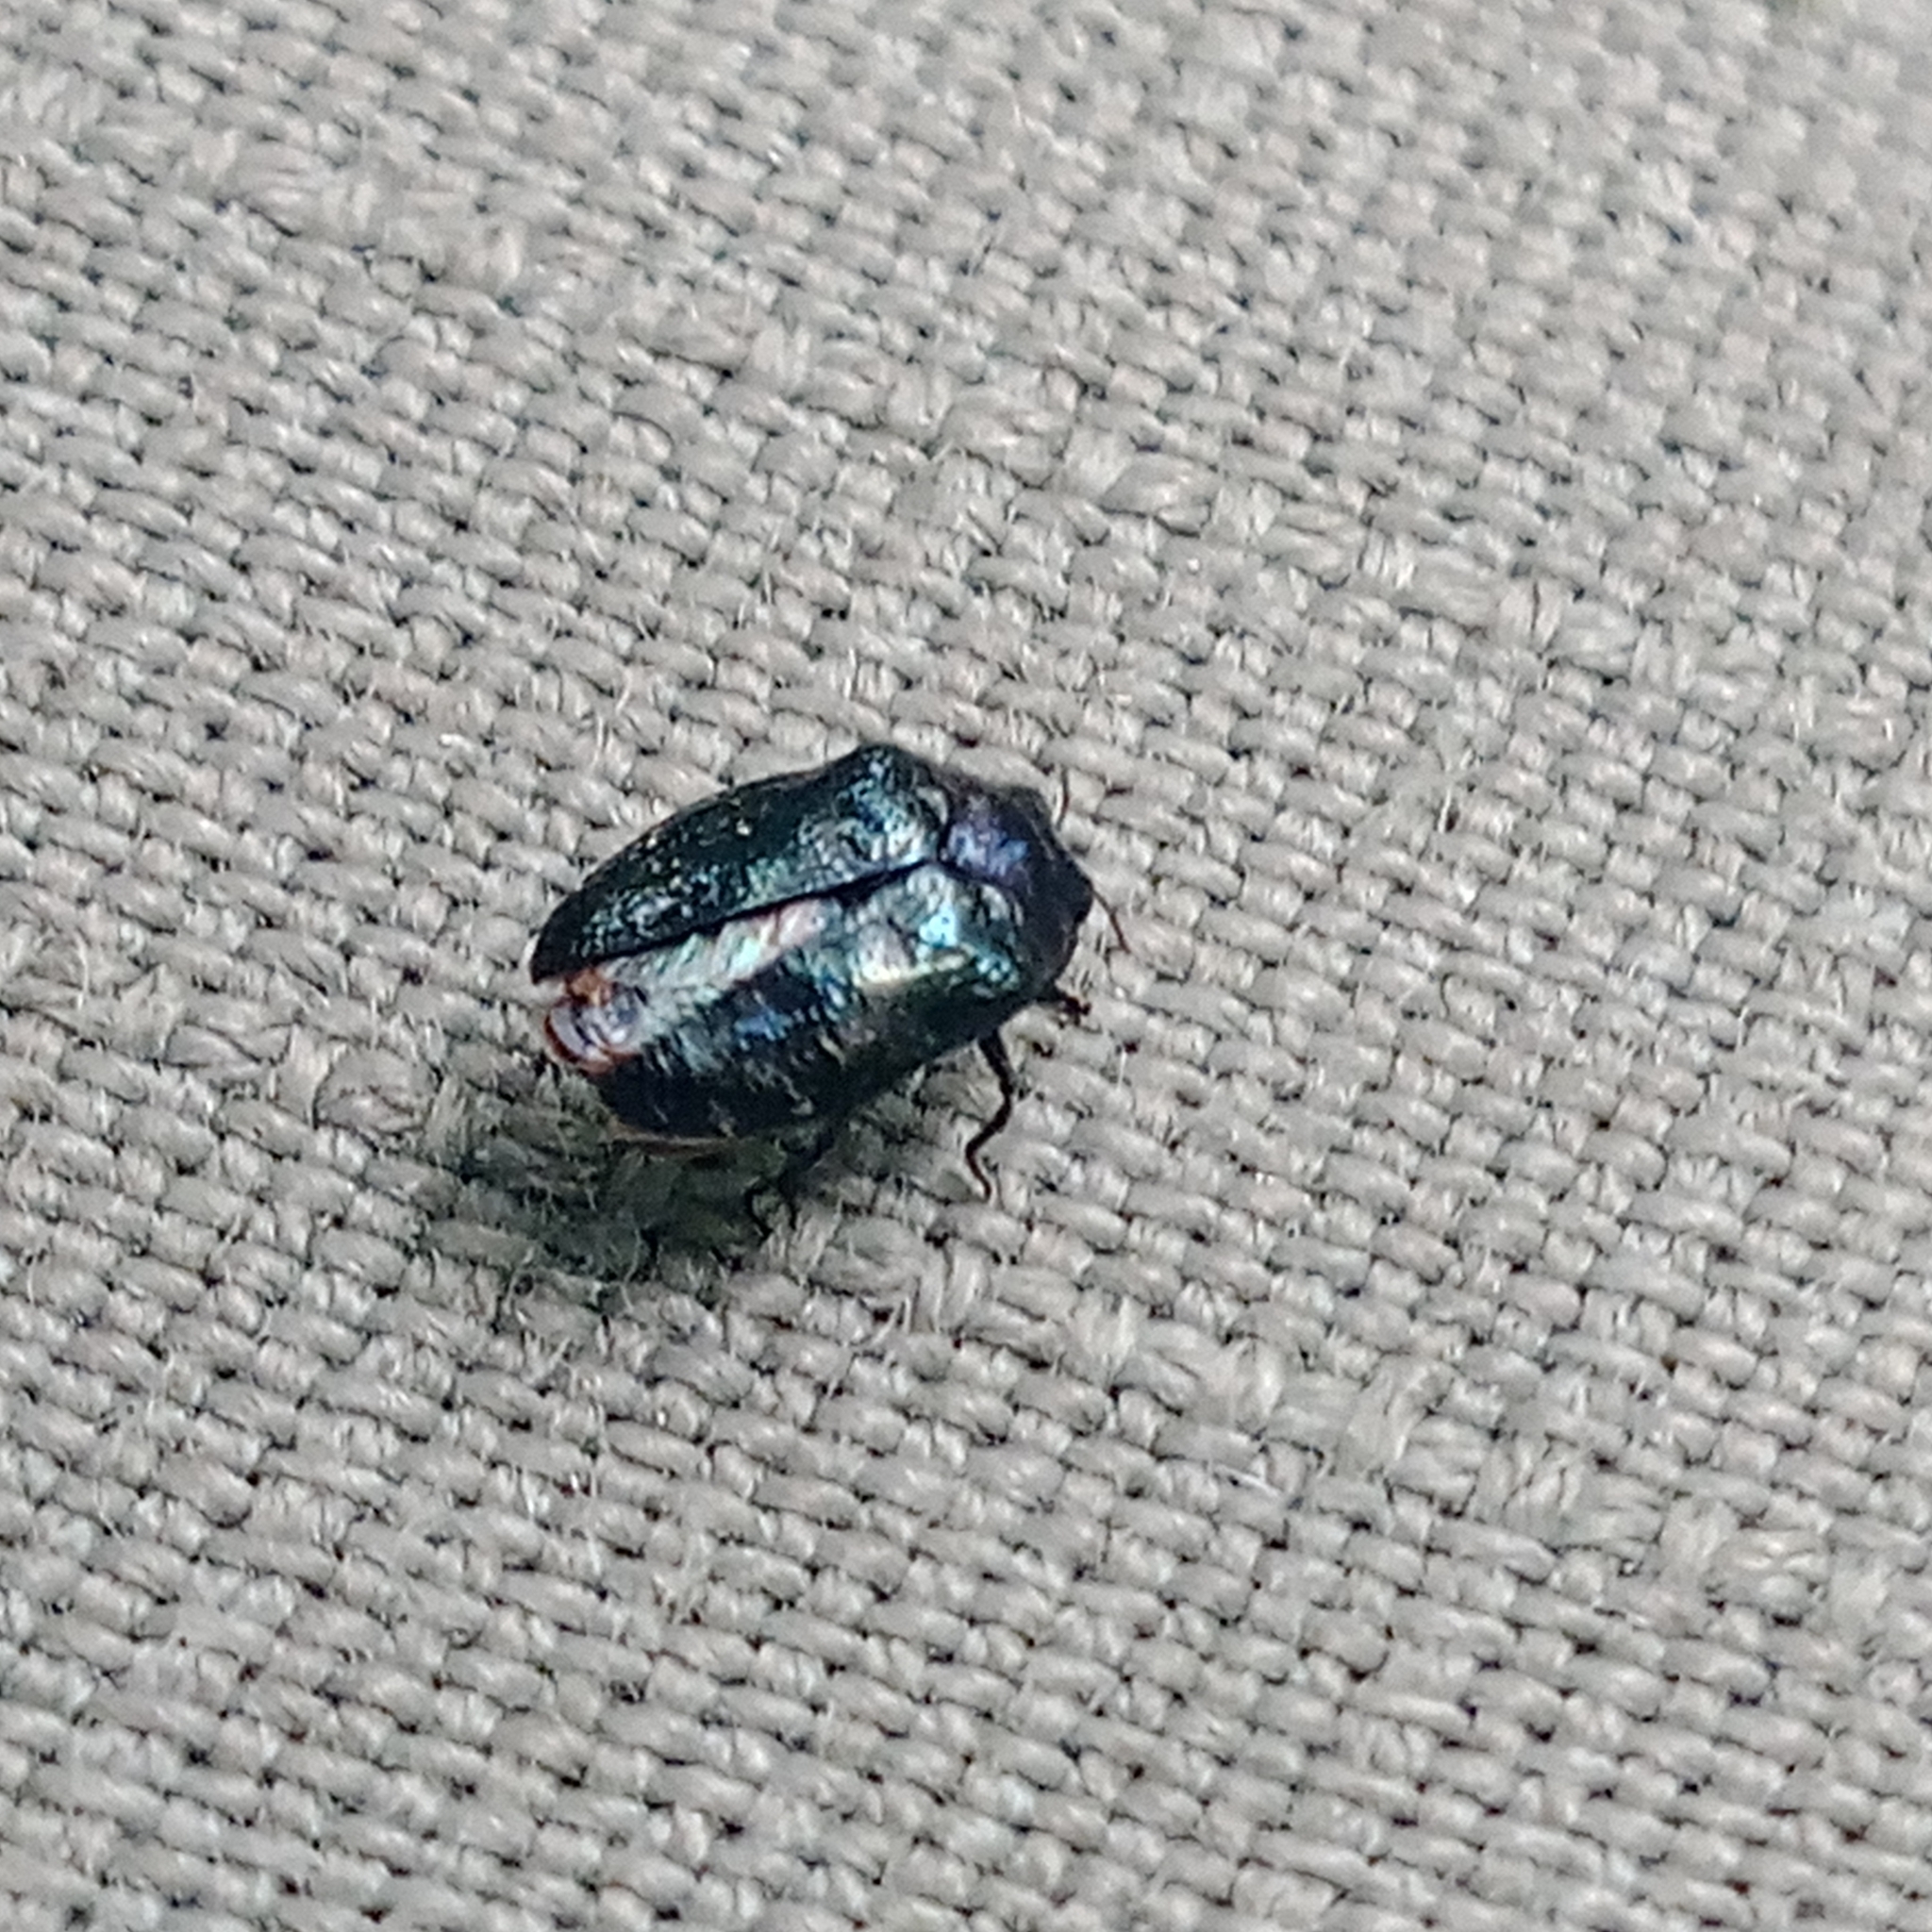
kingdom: Animalia
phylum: Arthropoda
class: Insecta
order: Coleoptera
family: Buprestidae
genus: Trachys
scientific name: Trachys minutus
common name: Metallic wood-boring beetle
